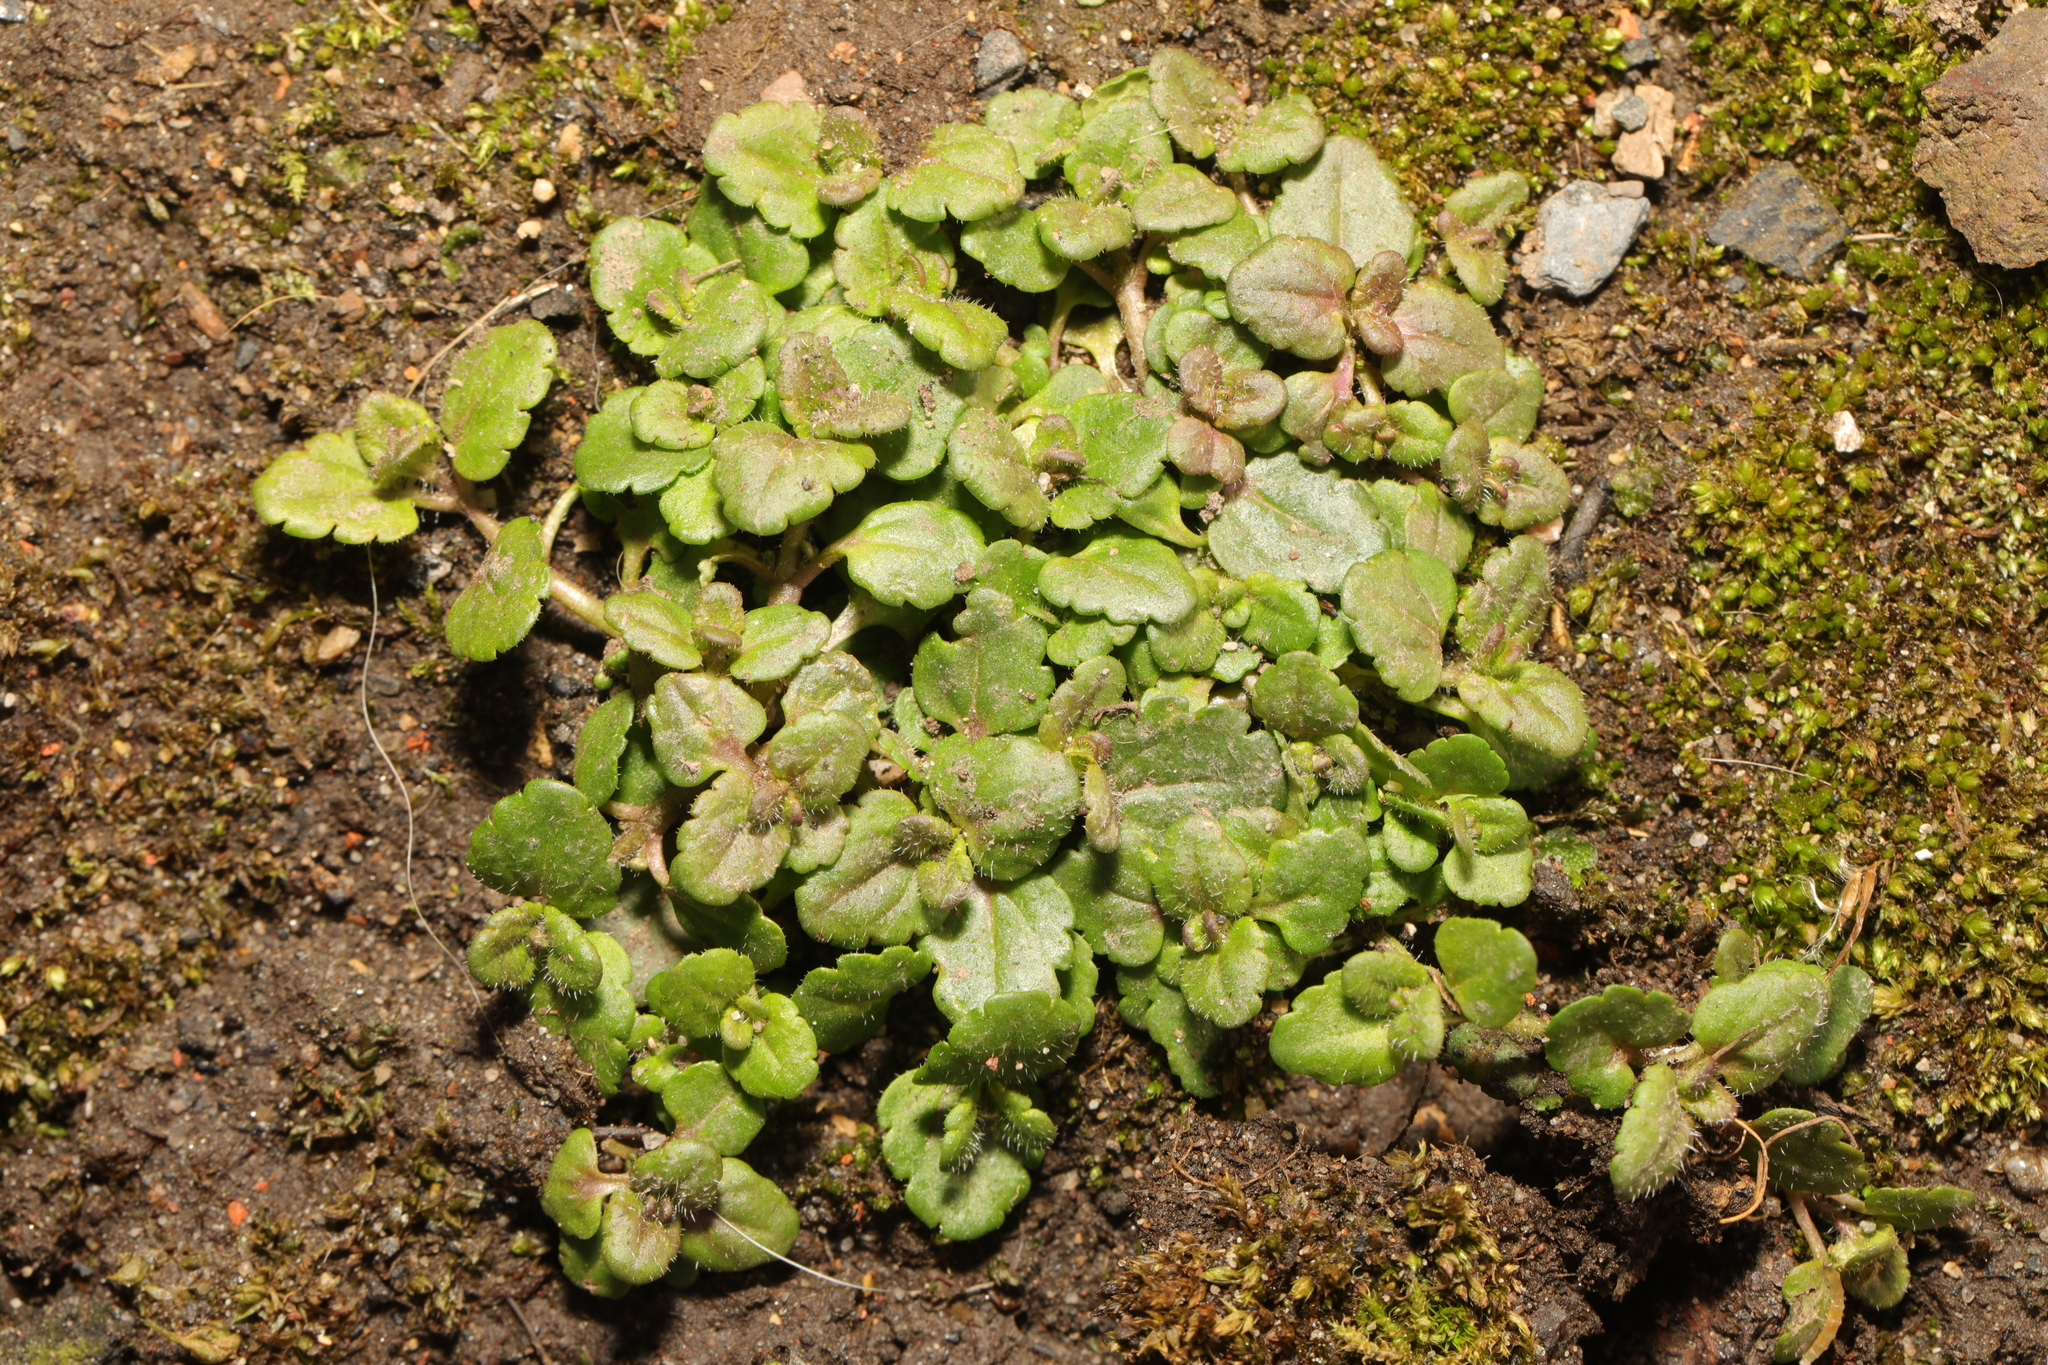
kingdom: Plantae
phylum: Tracheophyta
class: Magnoliopsida
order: Lamiales
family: Plantaginaceae
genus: Veronica
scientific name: Veronica persica
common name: Common field-speedwell
